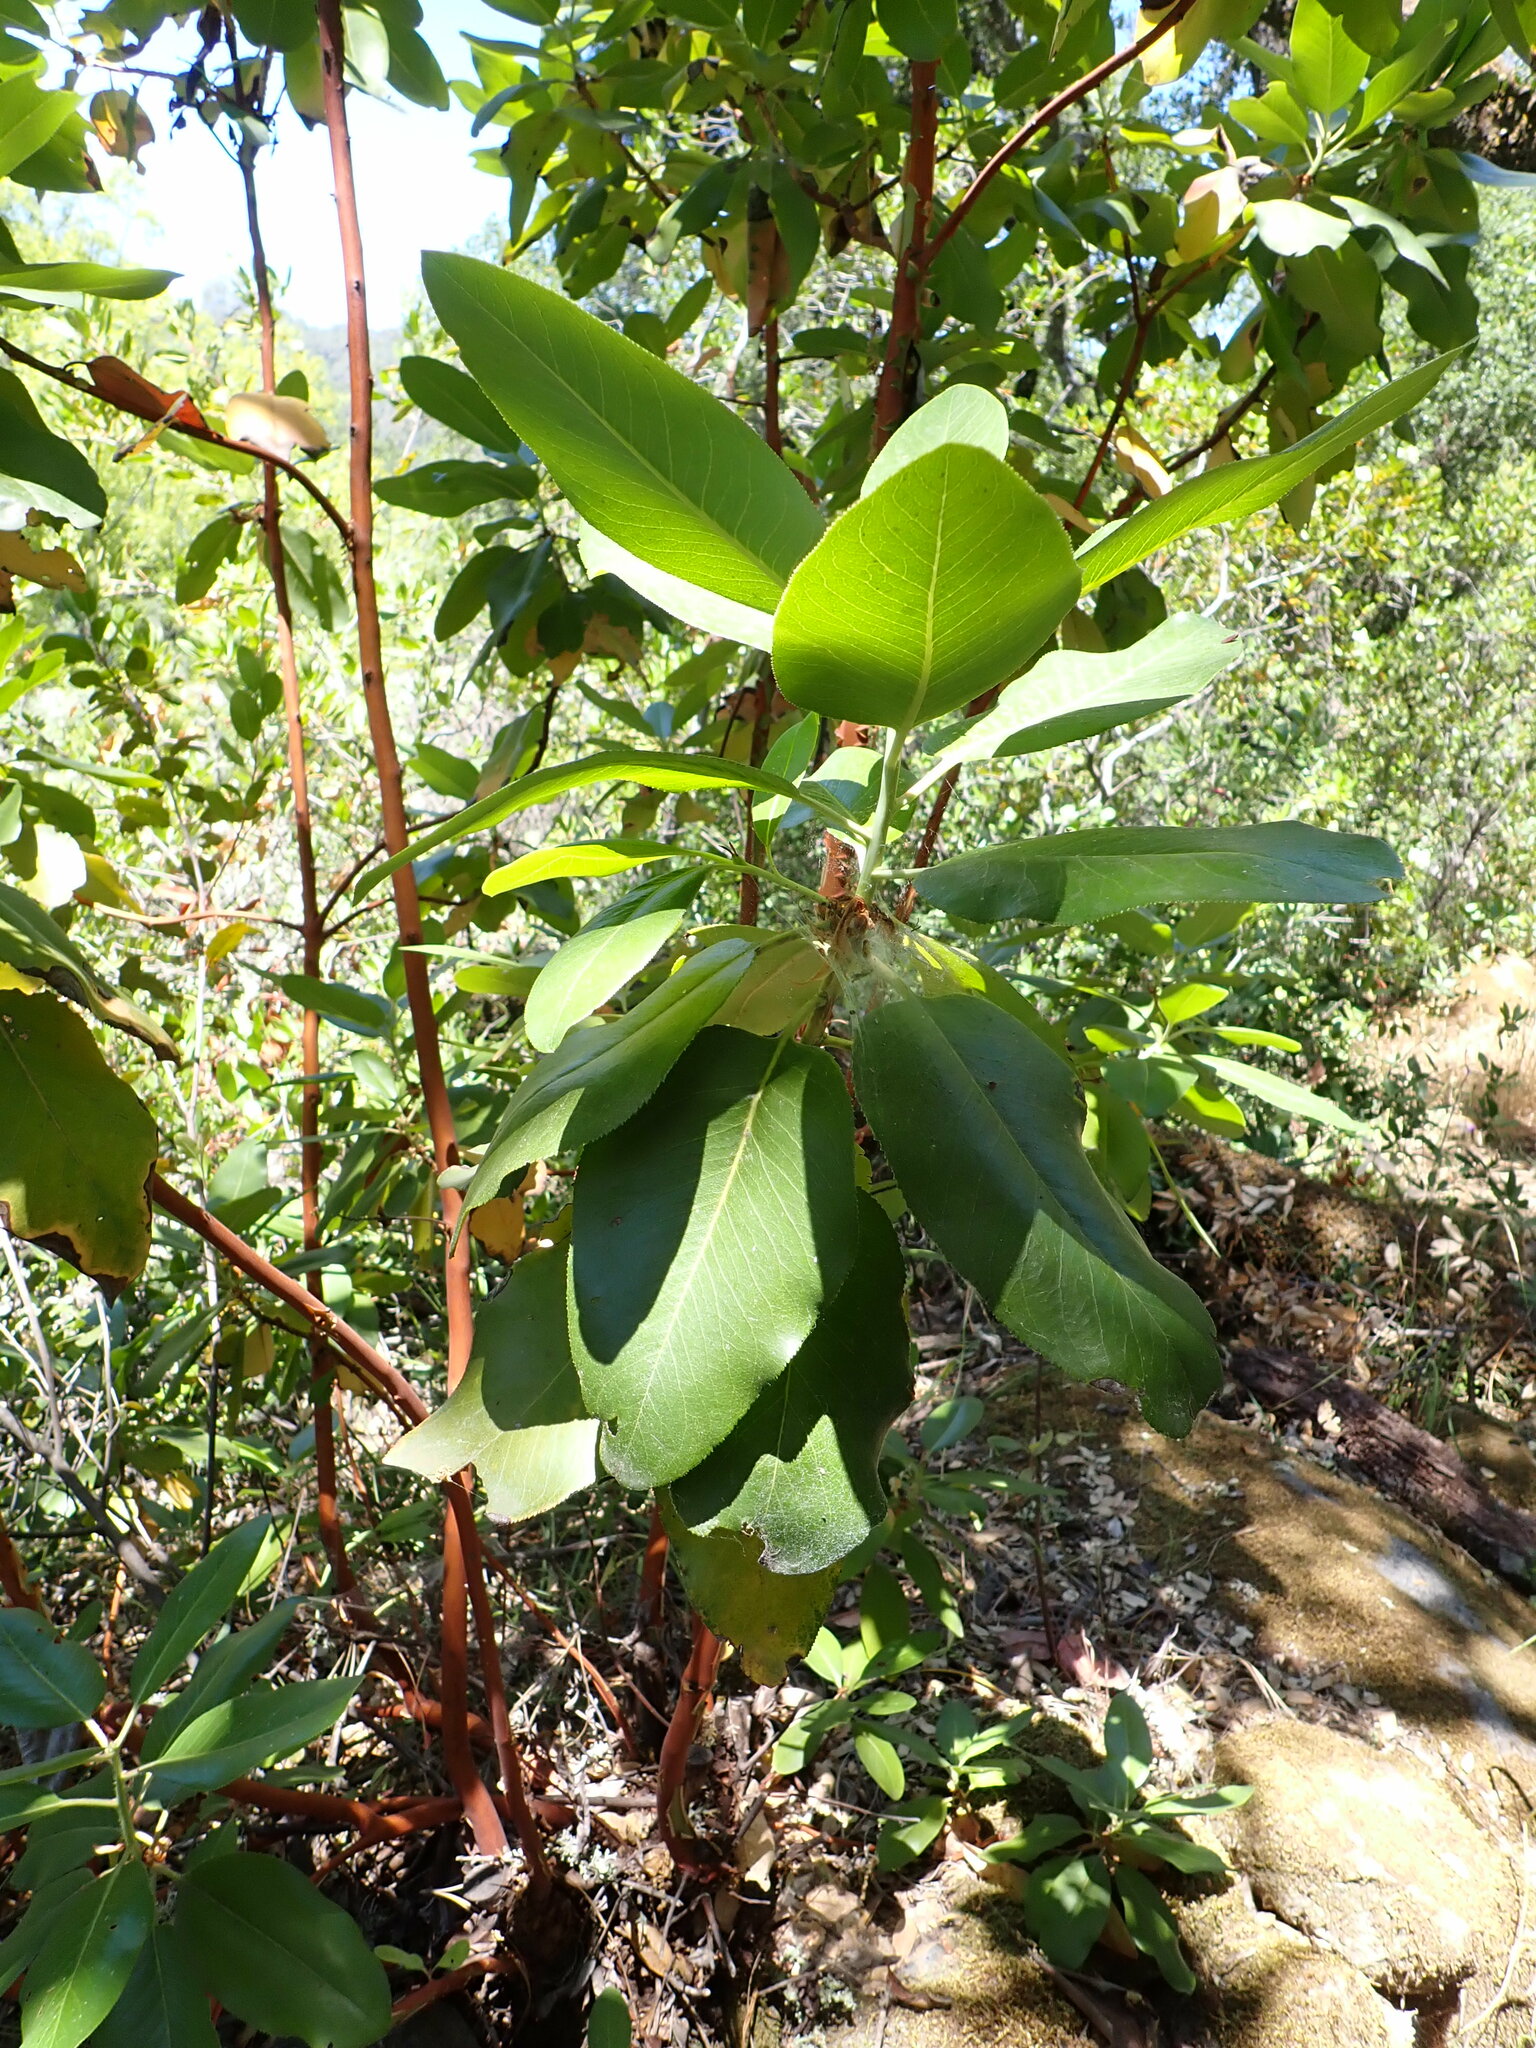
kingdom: Plantae
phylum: Tracheophyta
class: Magnoliopsida
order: Ericales
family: Ericaceae
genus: Arbutus
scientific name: Arbutus menziesii
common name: Pacific madrone
